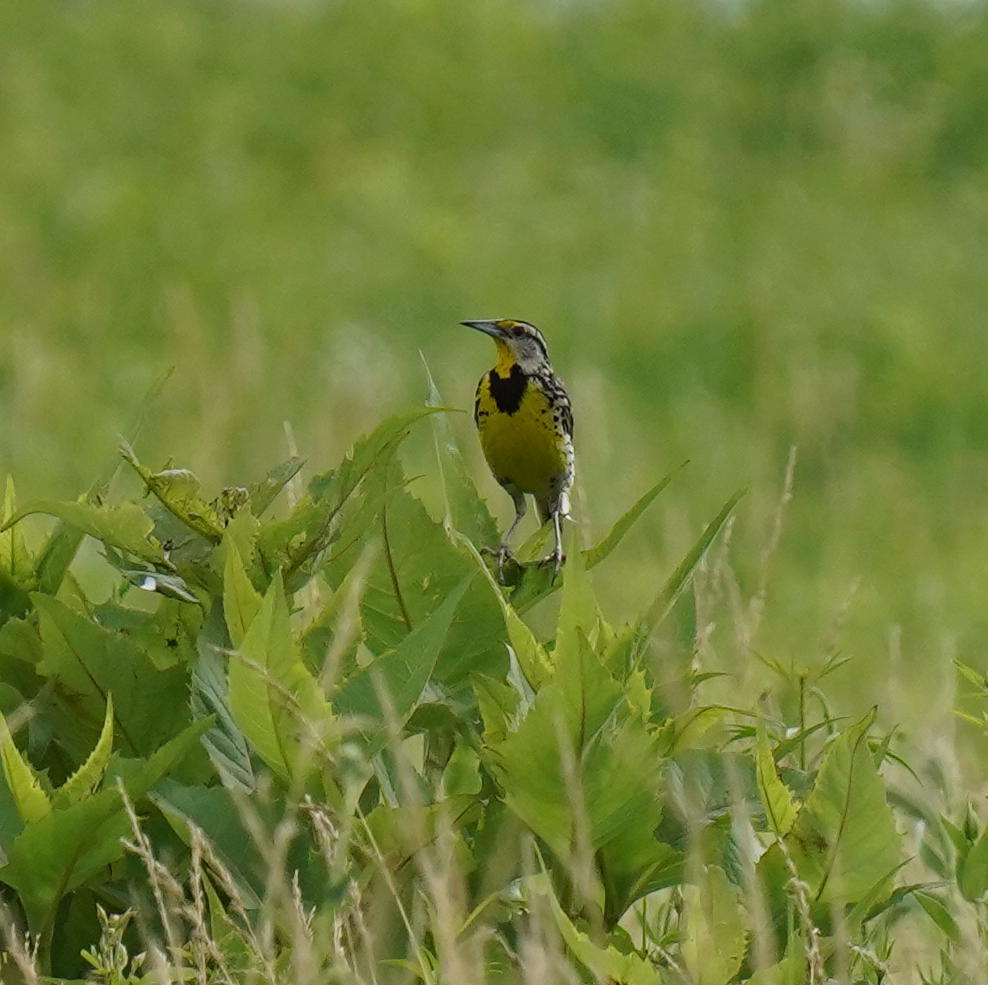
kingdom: Animalia
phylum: Chordata
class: Aves
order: Passeriformes
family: Icteridae
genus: Sturnella
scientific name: Sturnella magna
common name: Eastern meadowlark
